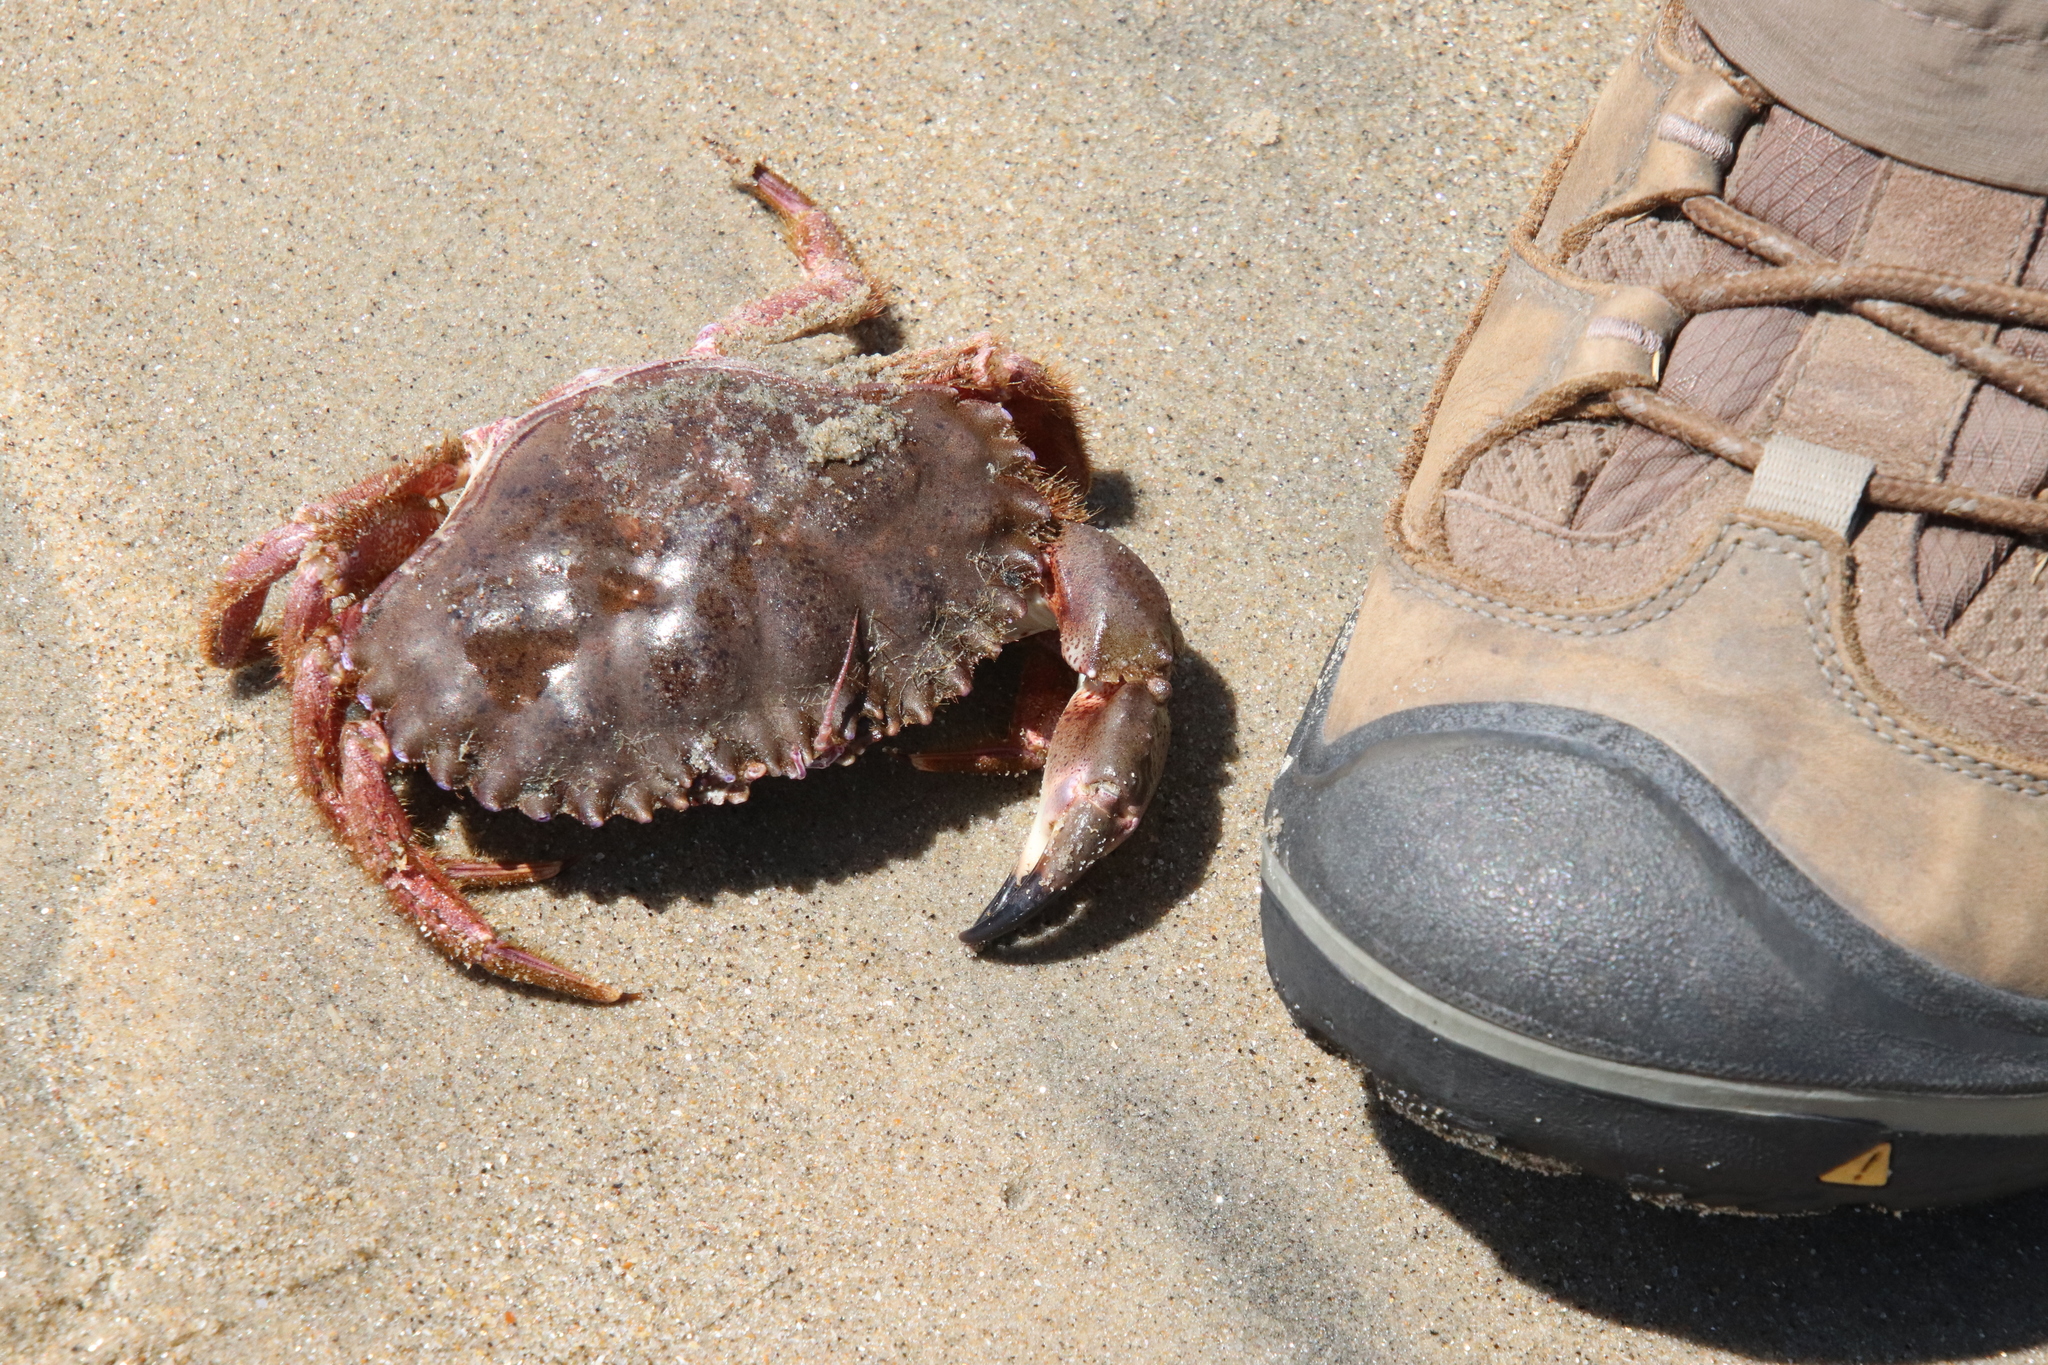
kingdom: Animalia
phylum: Arthropoda
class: Malacostraca
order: Decapoda
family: Cancridae
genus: Romaleon
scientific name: Romaleon antennarium
